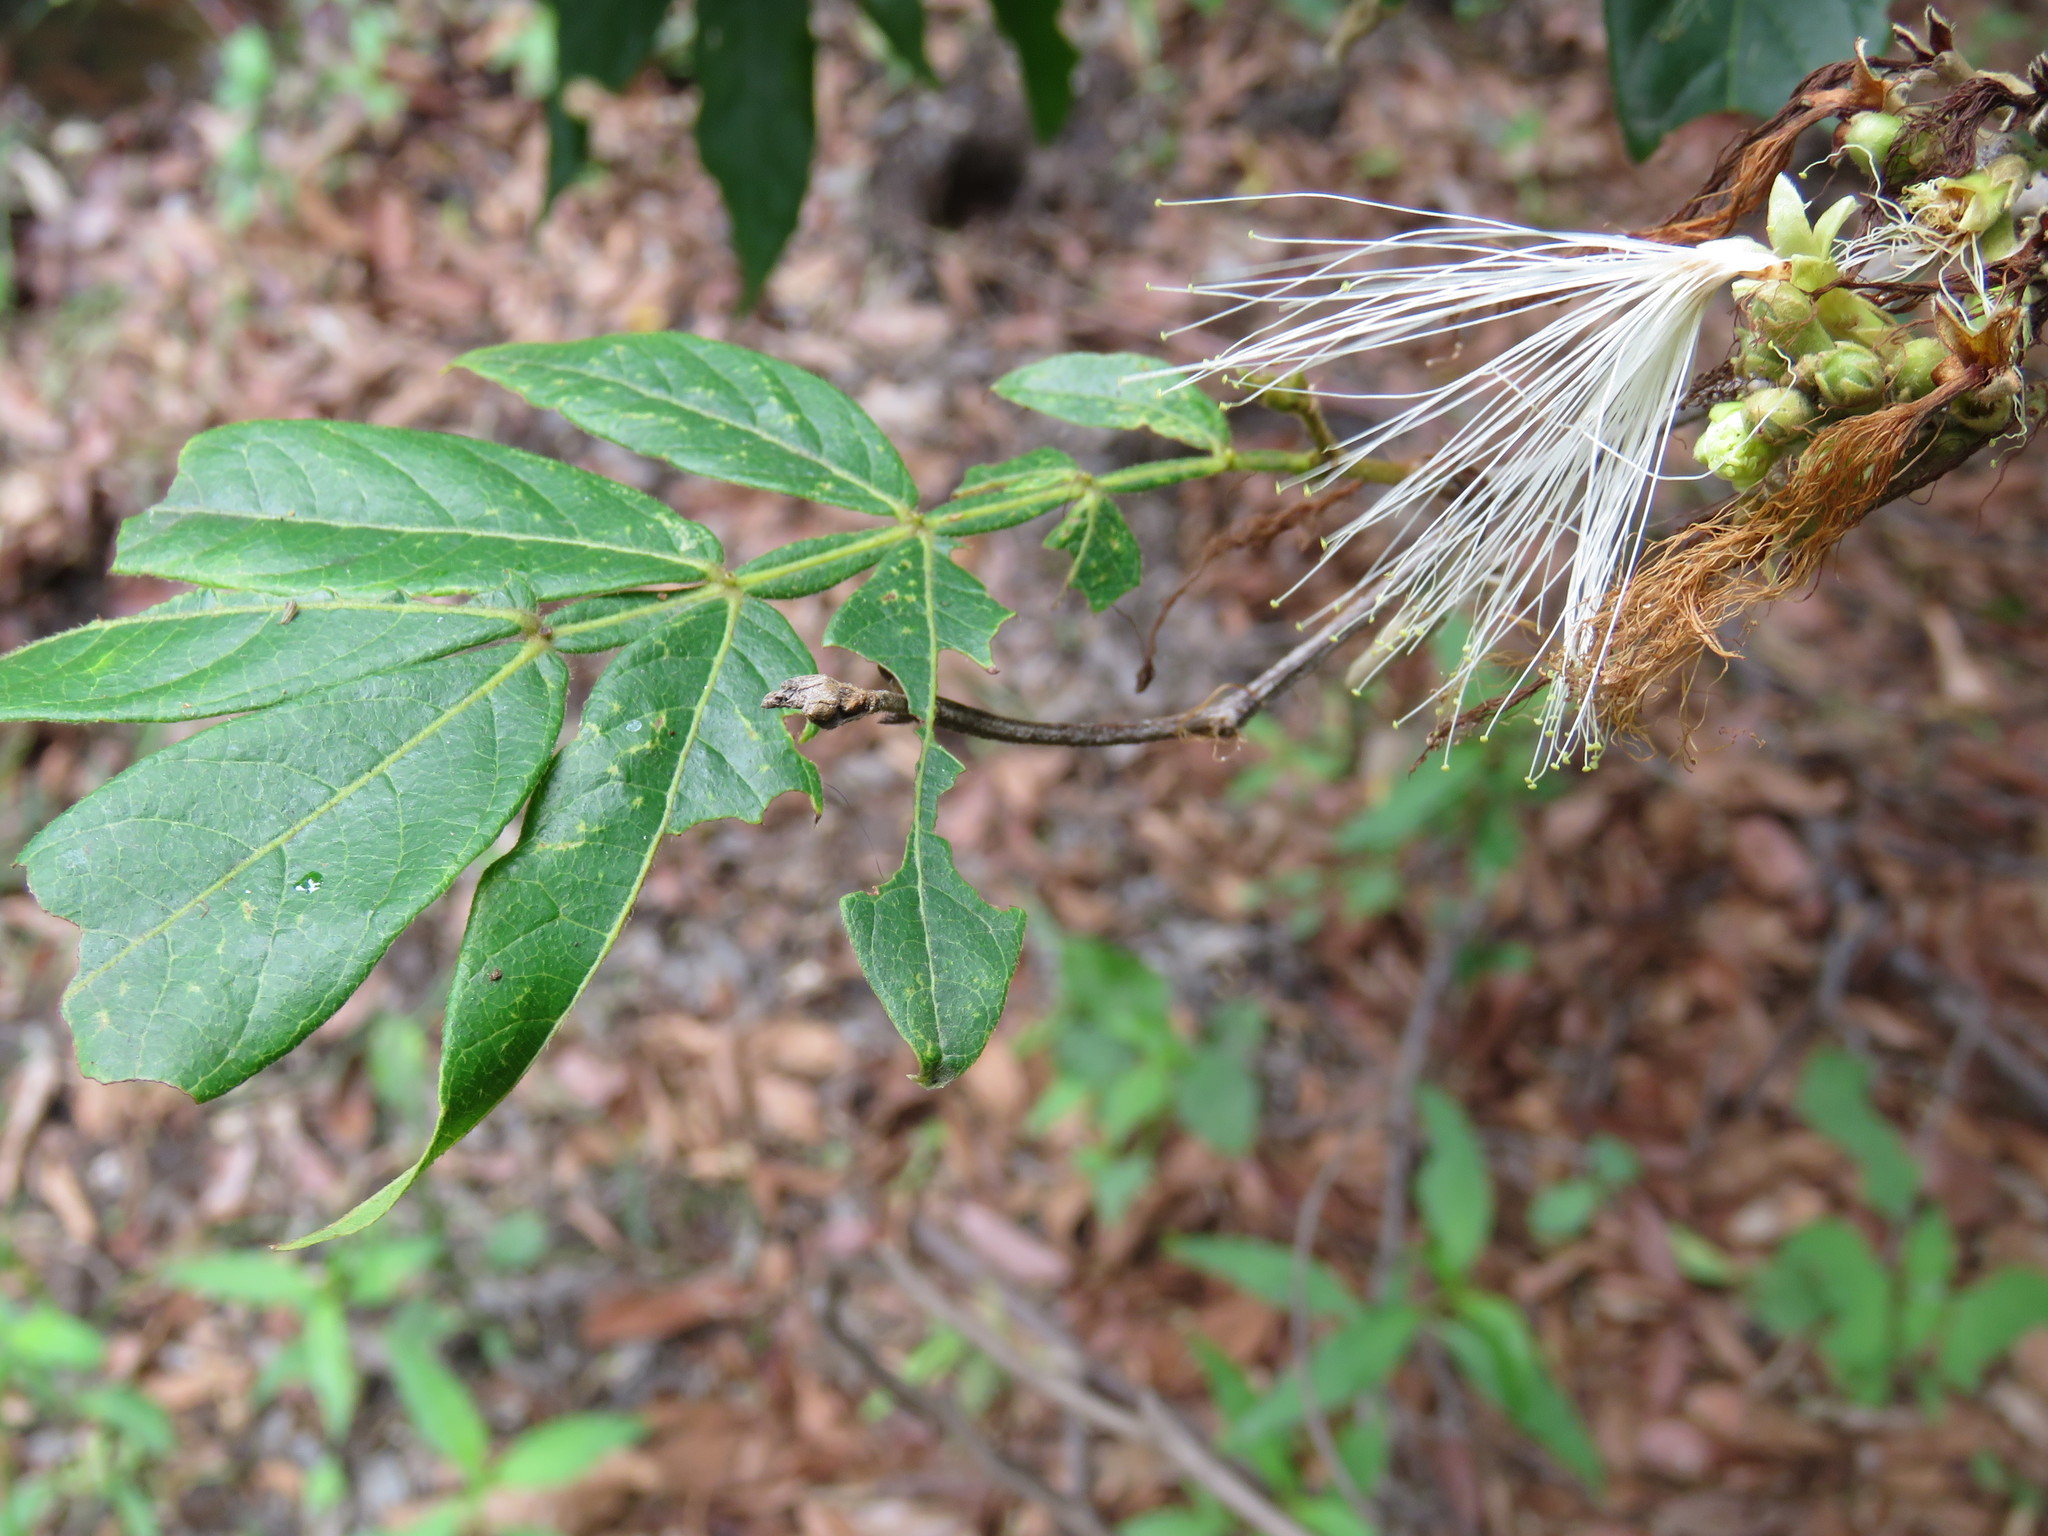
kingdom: Plantae
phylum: Tracheophyta
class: Magnoliopsida
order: Fabales
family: Fabaceae
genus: Inga
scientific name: Inga uraguensis
